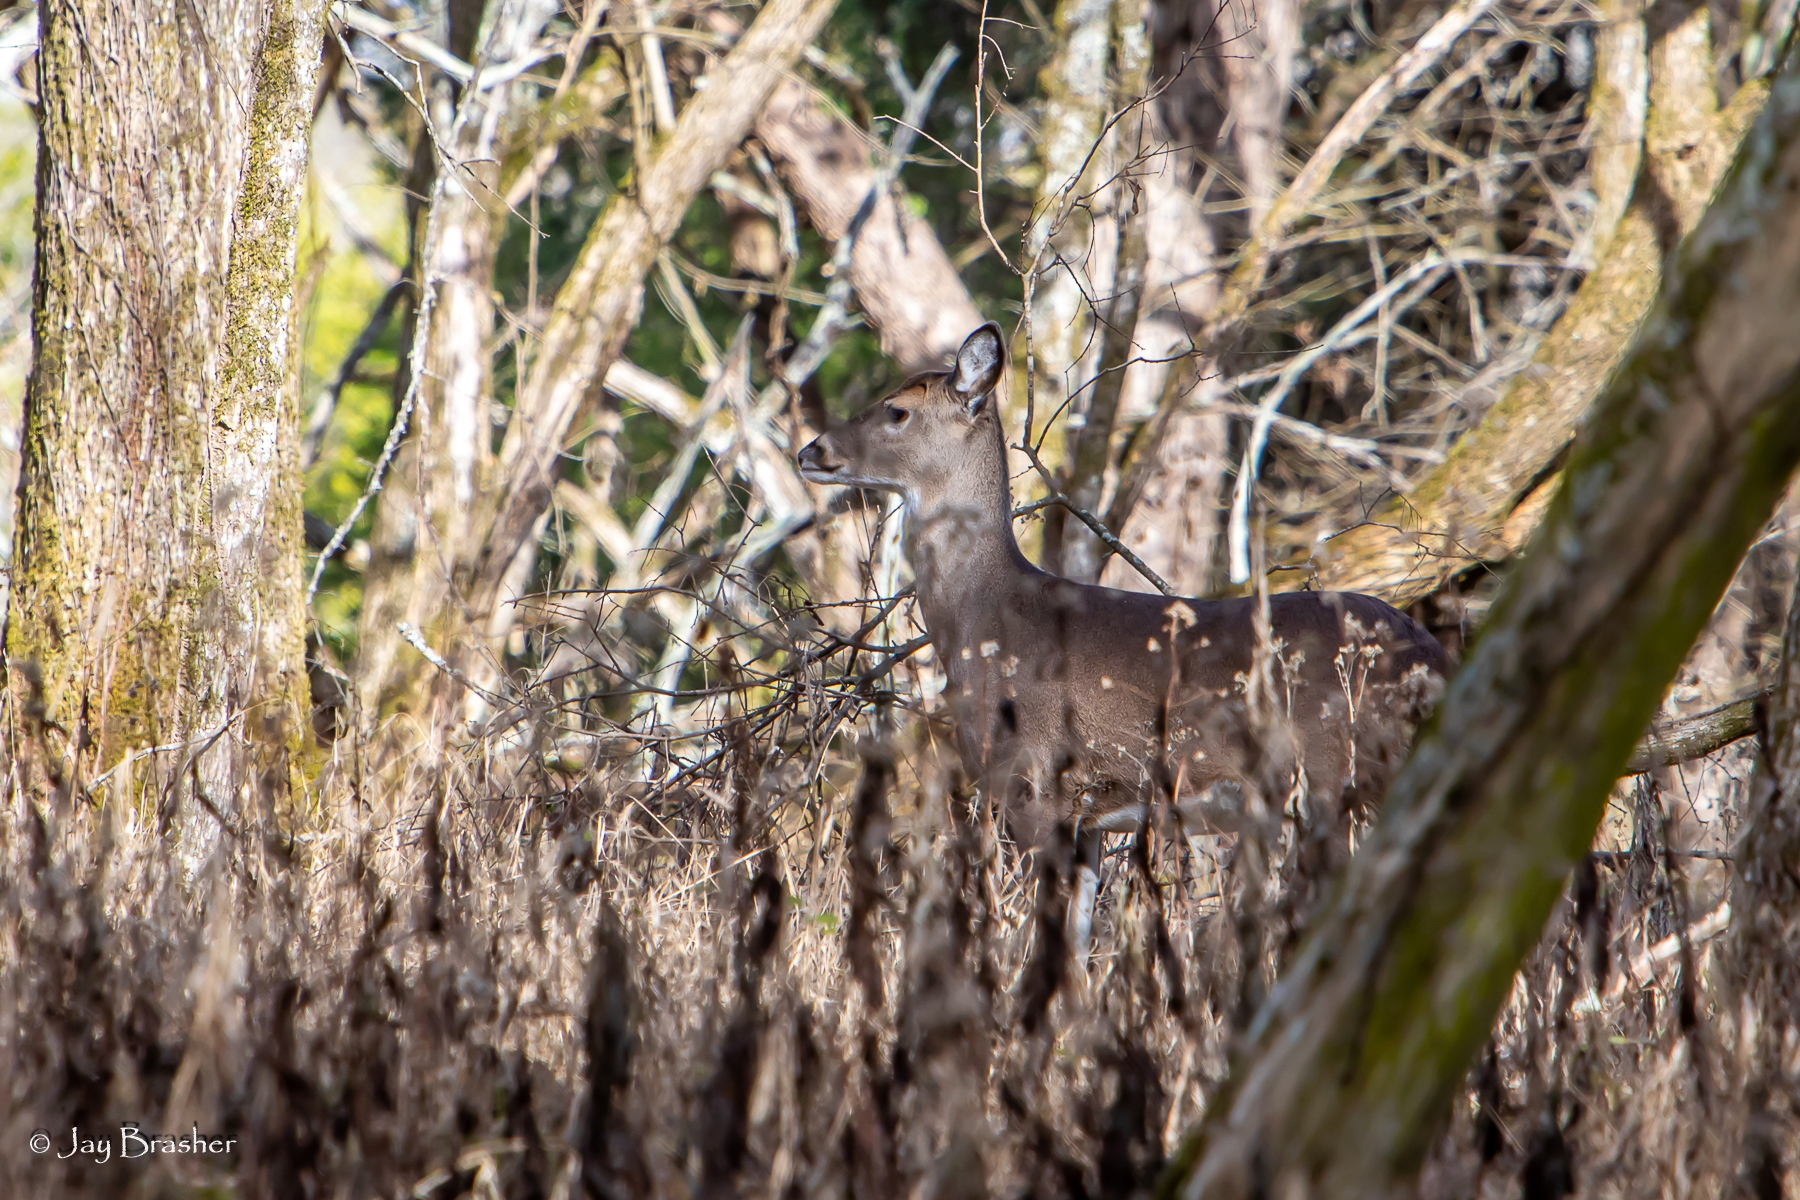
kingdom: Animalia
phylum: Chordata
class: Mammalia
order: Artiodactyla
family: Cervidae
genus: Odocoileus
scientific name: Odocoileus virginianus
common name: White-tailed deer
